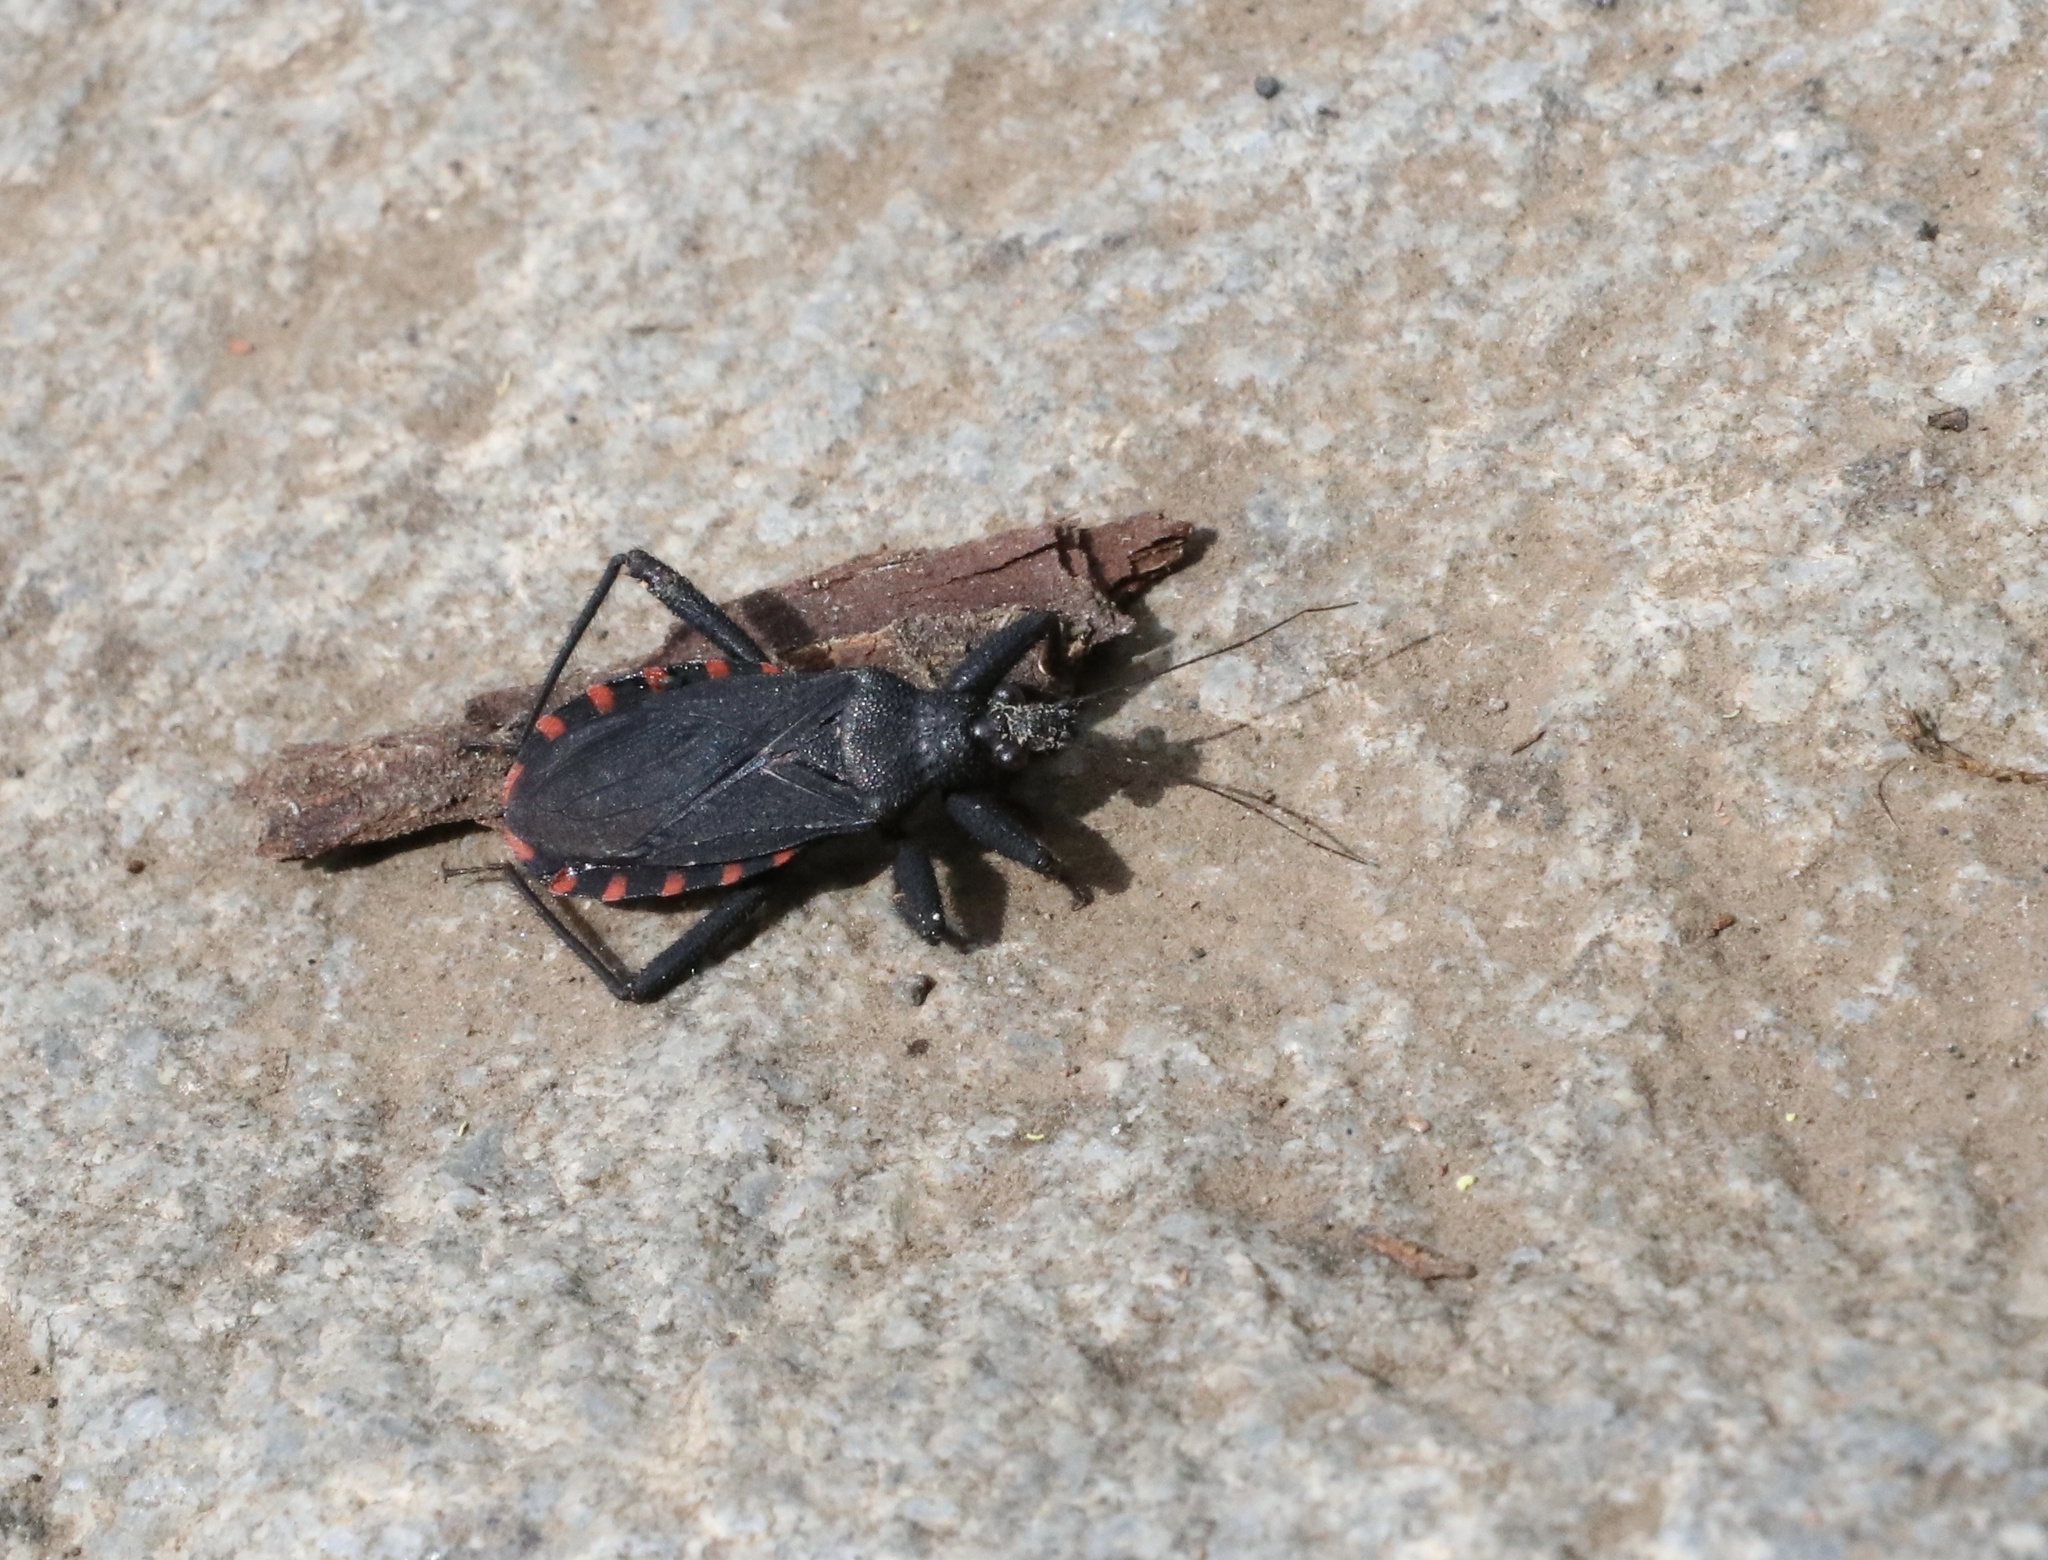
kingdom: Animalia
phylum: Arthropoda
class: Insecta
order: Hemiptera
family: Reduviidae
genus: Microtomus
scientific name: Microtomus gayi
